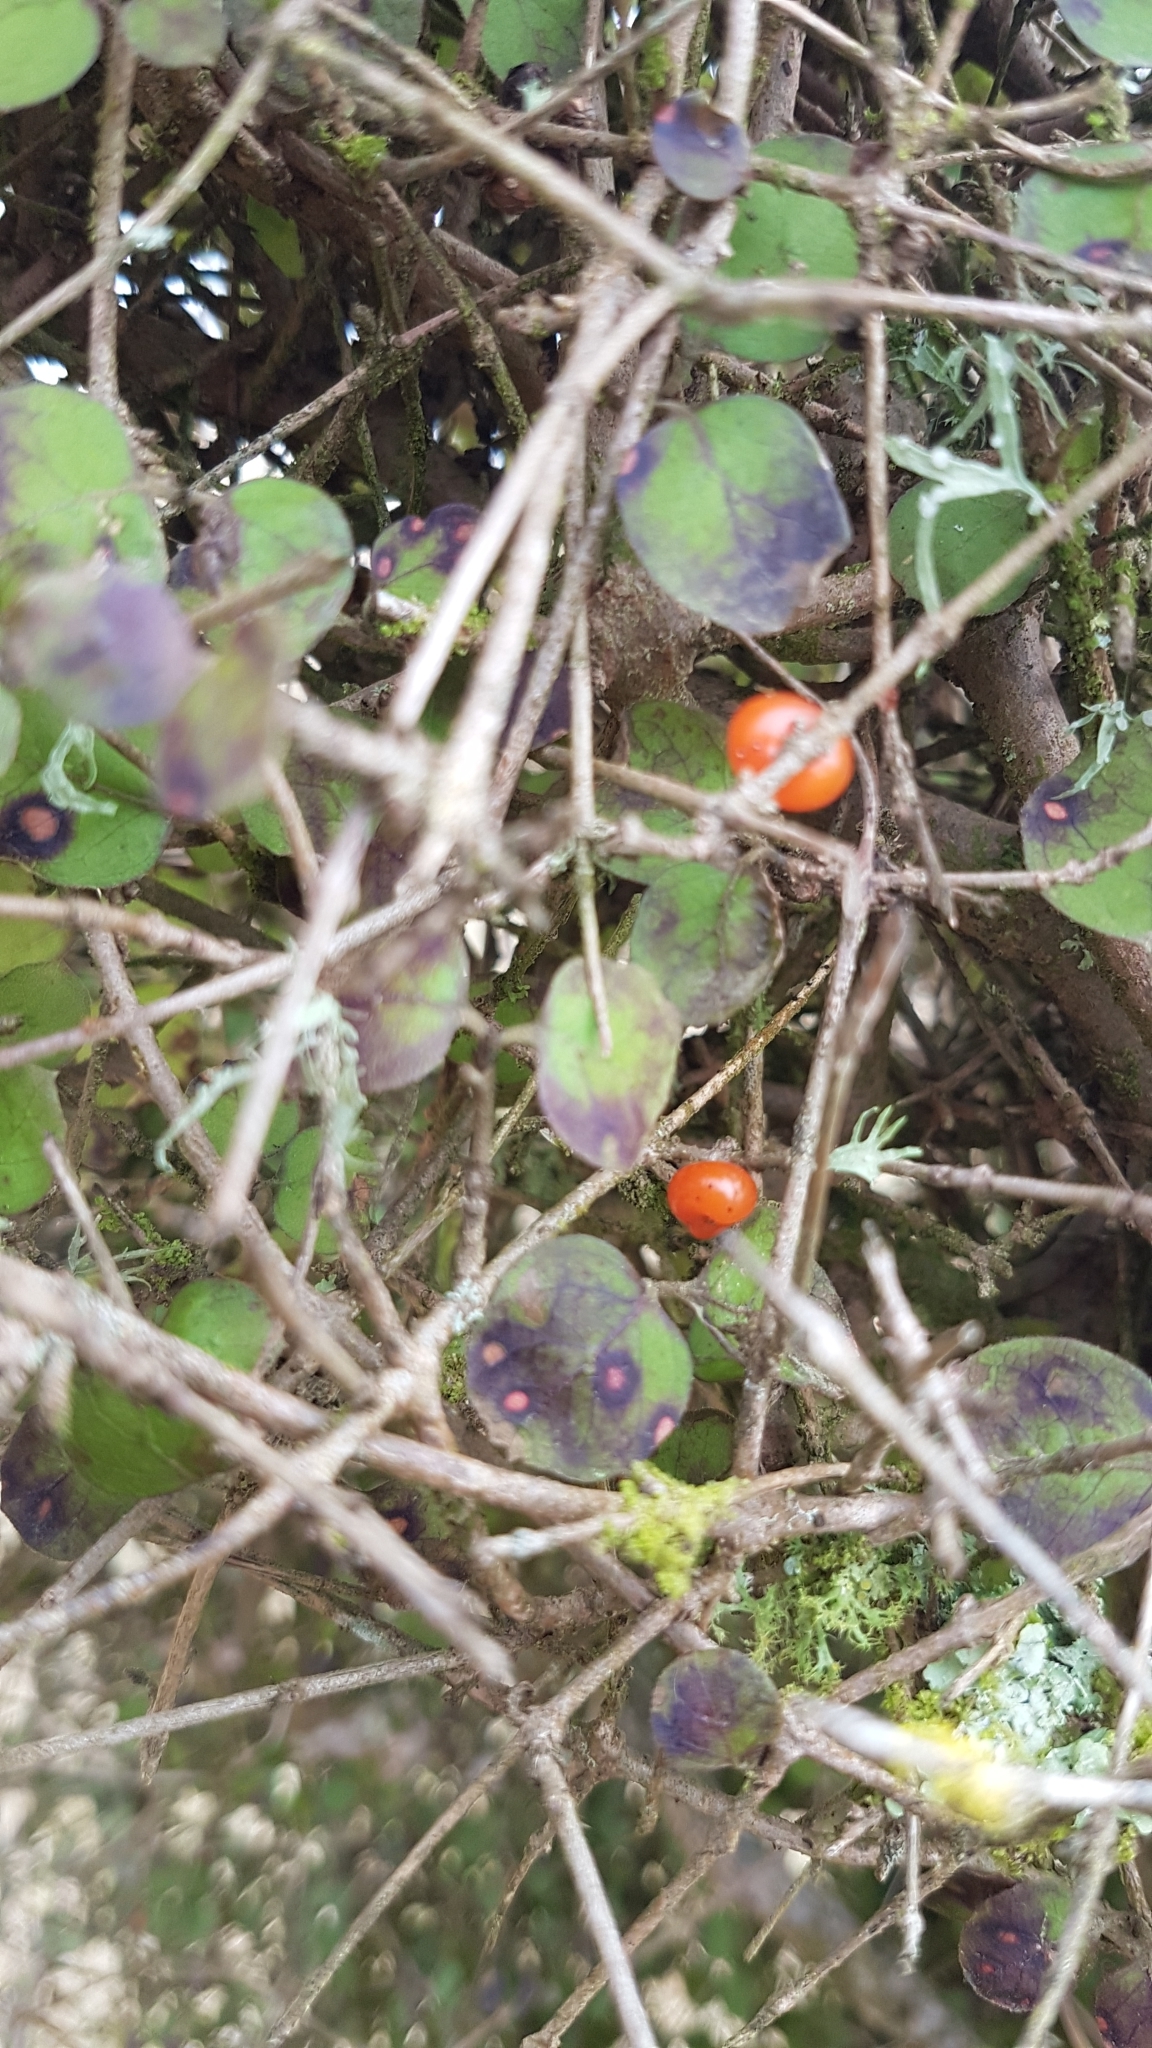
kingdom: Plantae
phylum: Tracheophyta
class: Magnoliopsida
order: Gentianales
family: Rubiaceae
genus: Coprosma
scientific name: Coprosma rotundifolia
